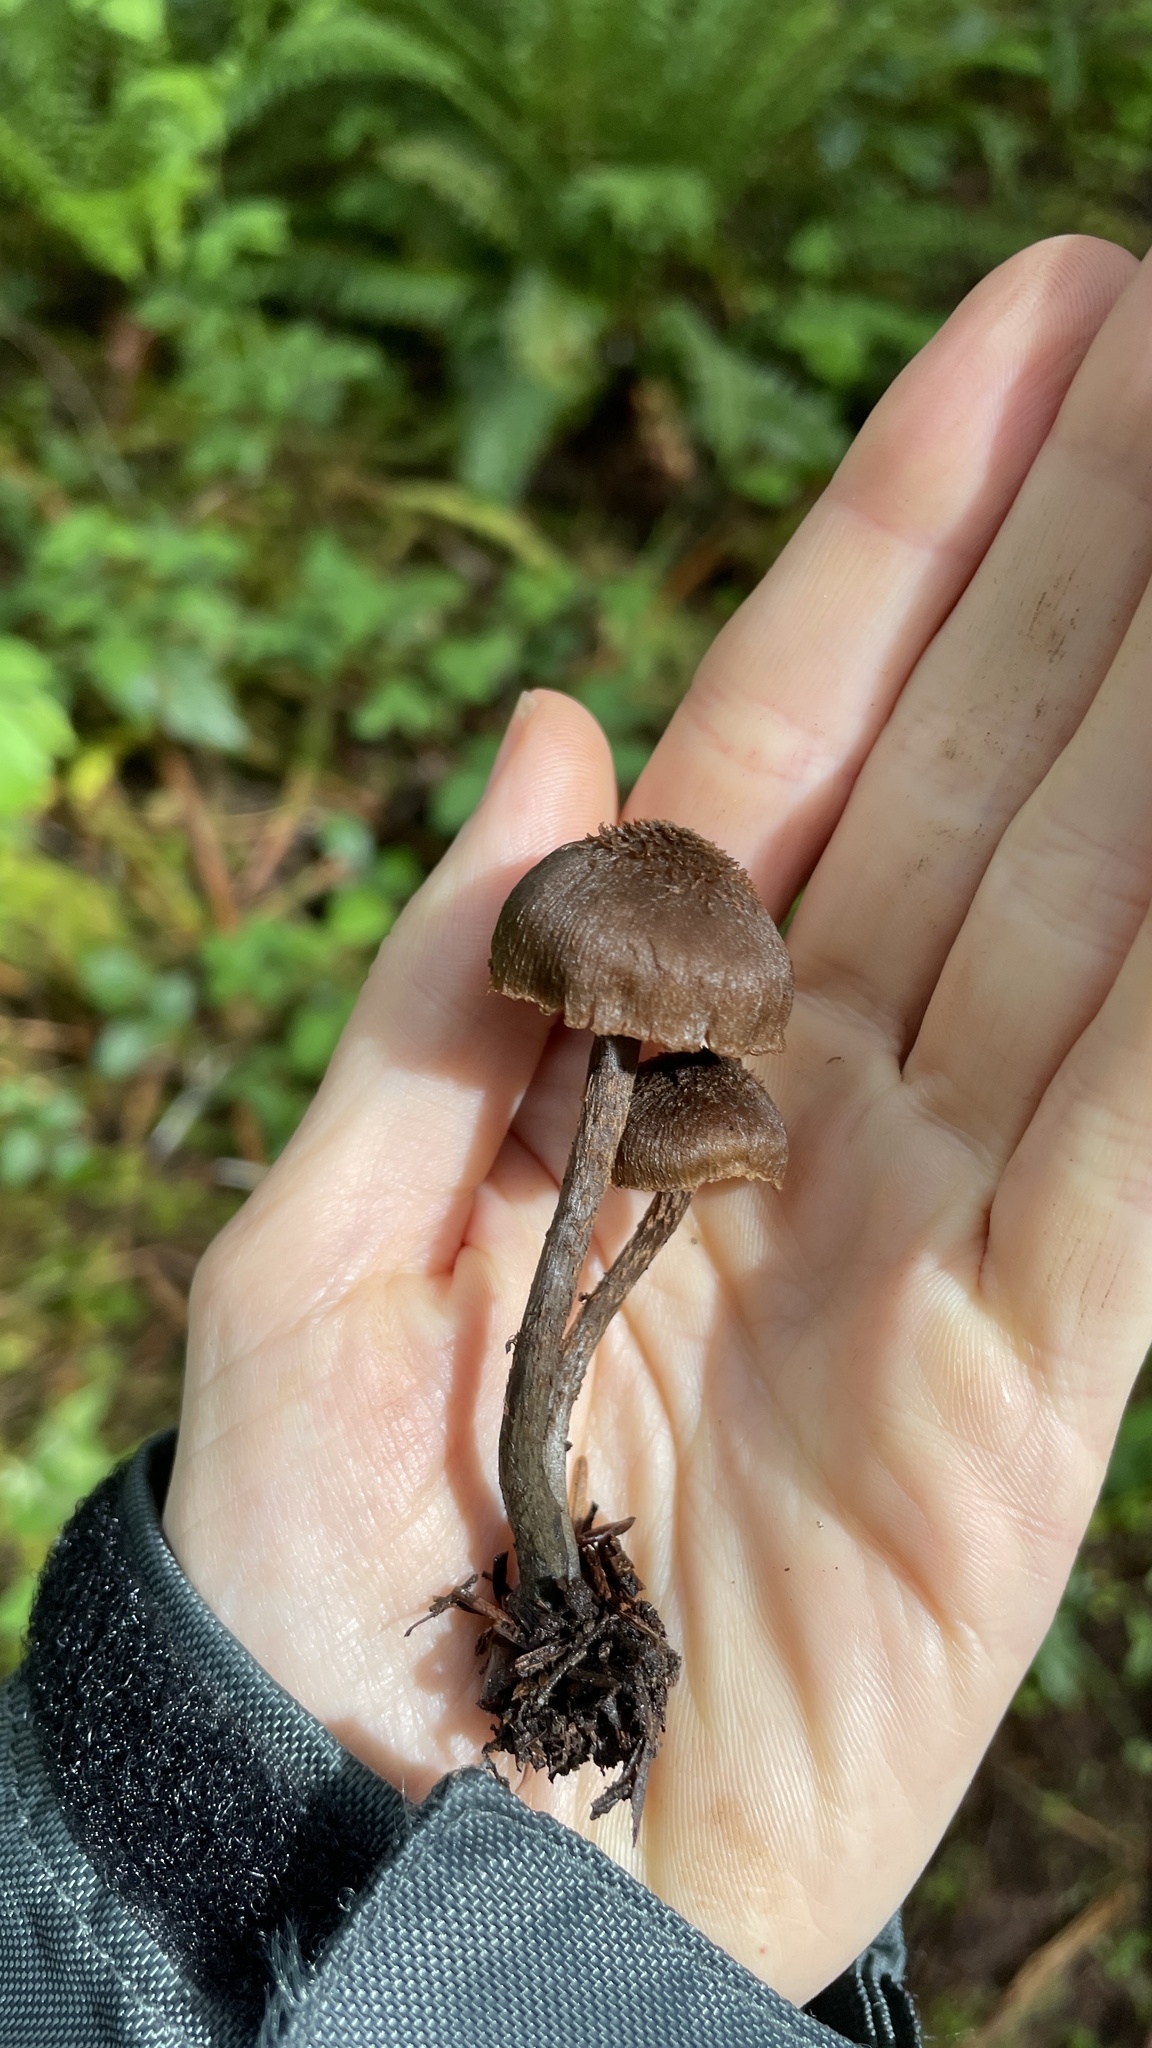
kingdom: Fungi
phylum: Basidiomycota
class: Agaricomycetes
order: Agaricales
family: Inocybaceae
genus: Inosperma
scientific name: Inosperma calamistratum
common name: Greenfoot fibrecap
